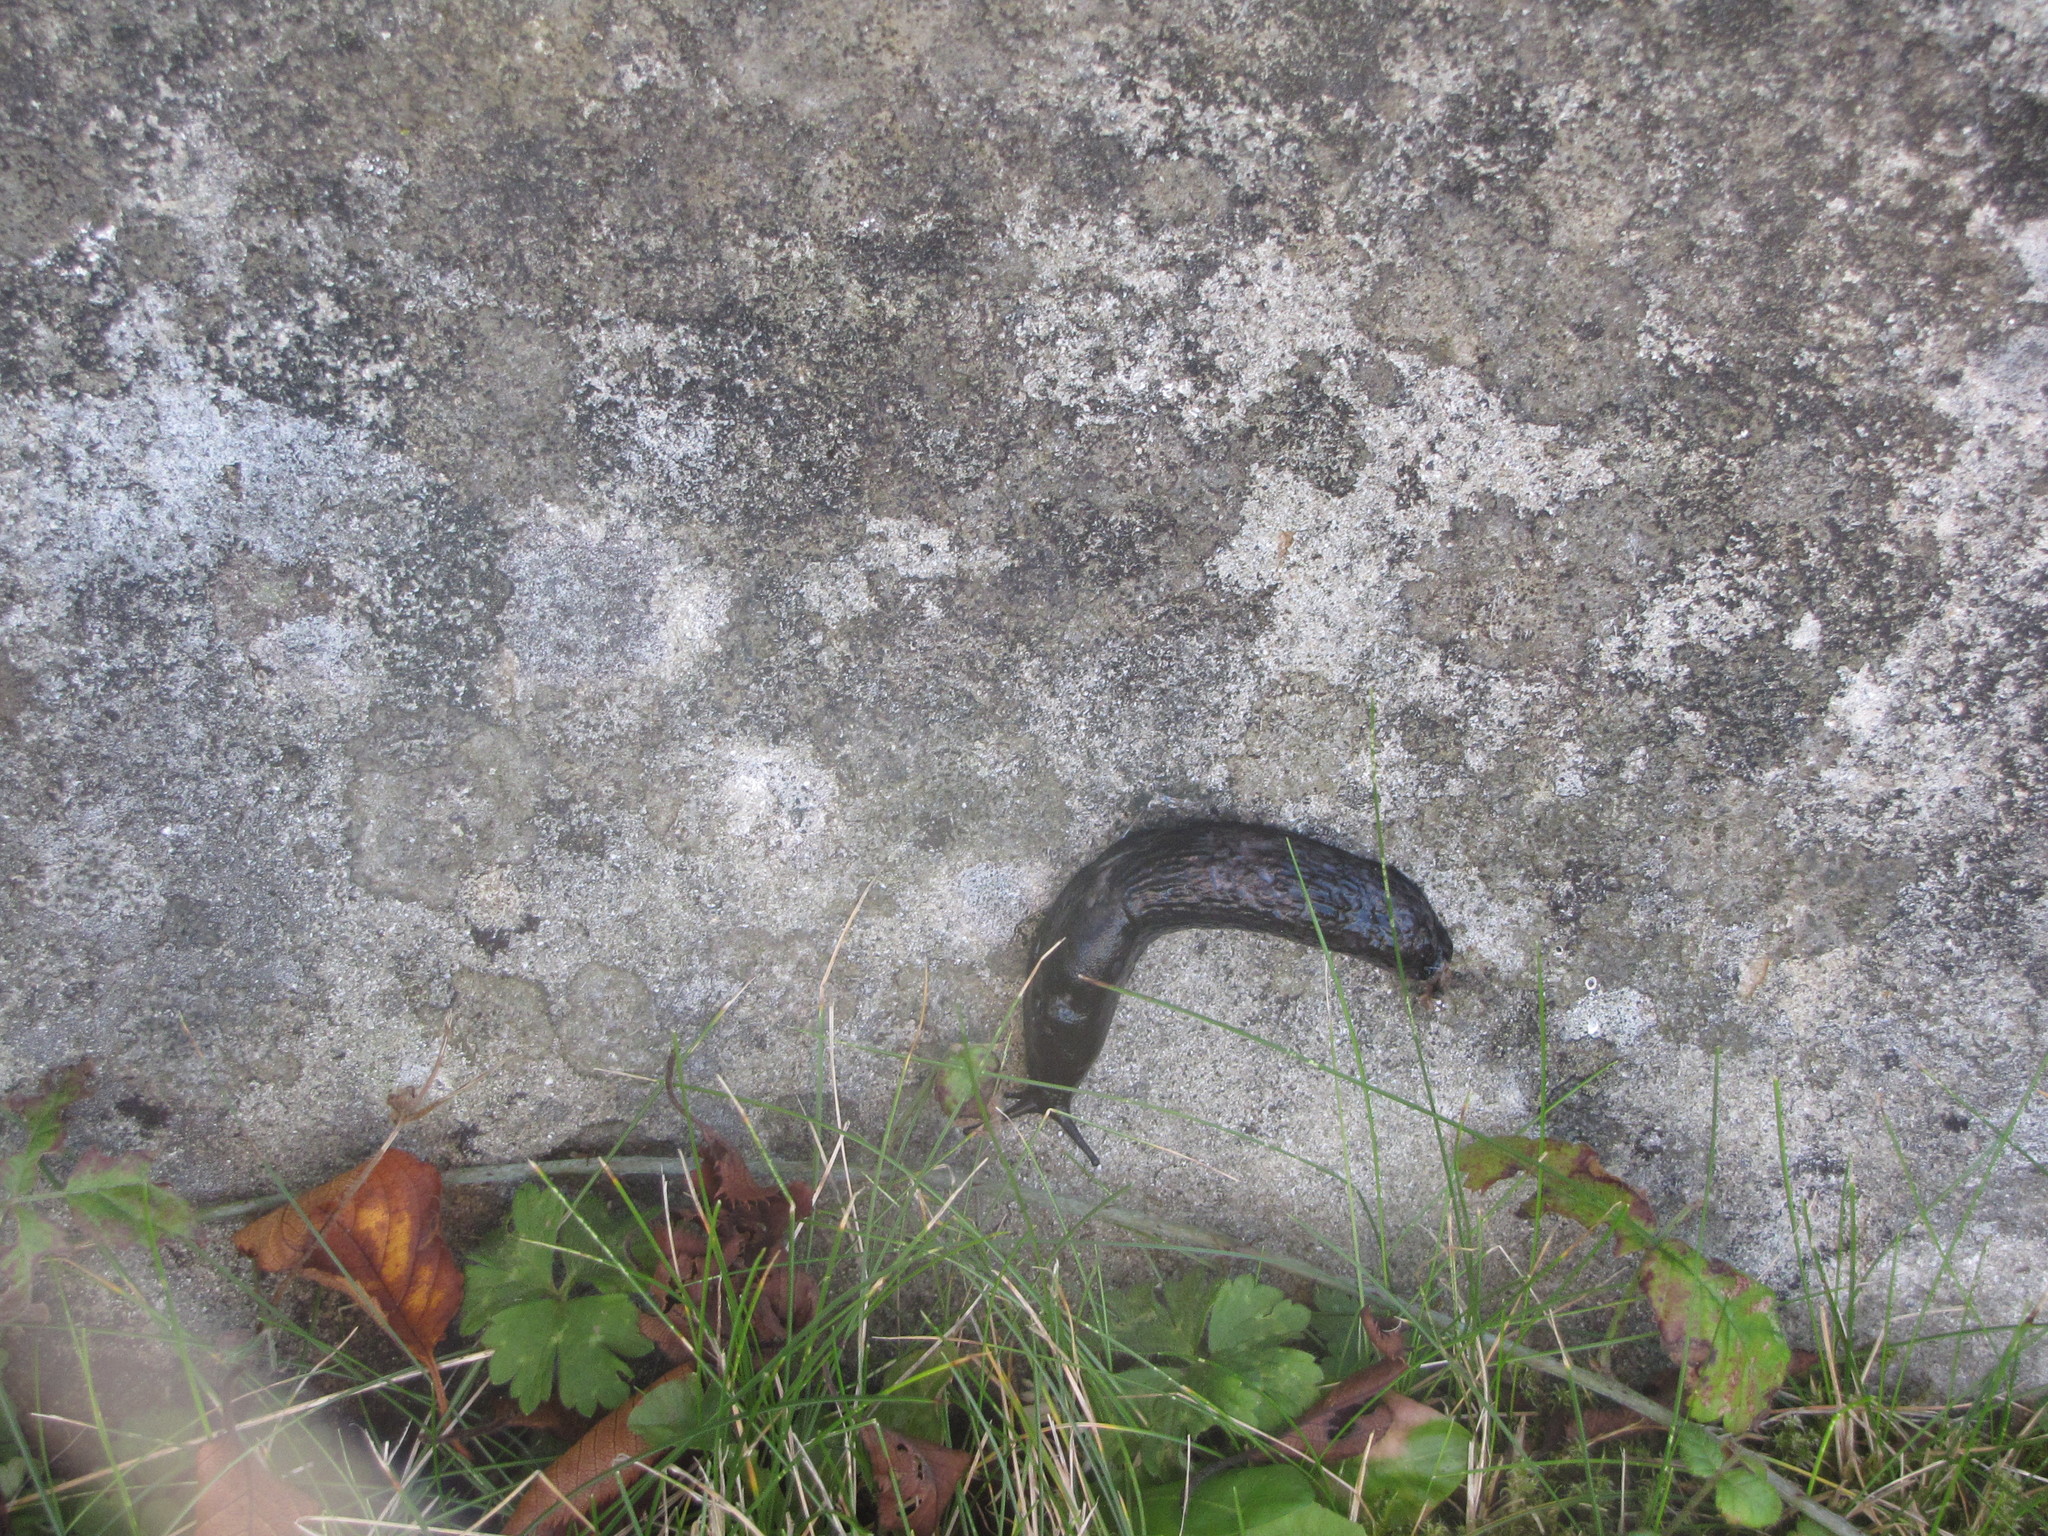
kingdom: Animalia
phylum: Mollusca
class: Gastropoda
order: Stylommatophora
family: Arionidae
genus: Arion
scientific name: Arion rufus
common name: Chocolate arion
